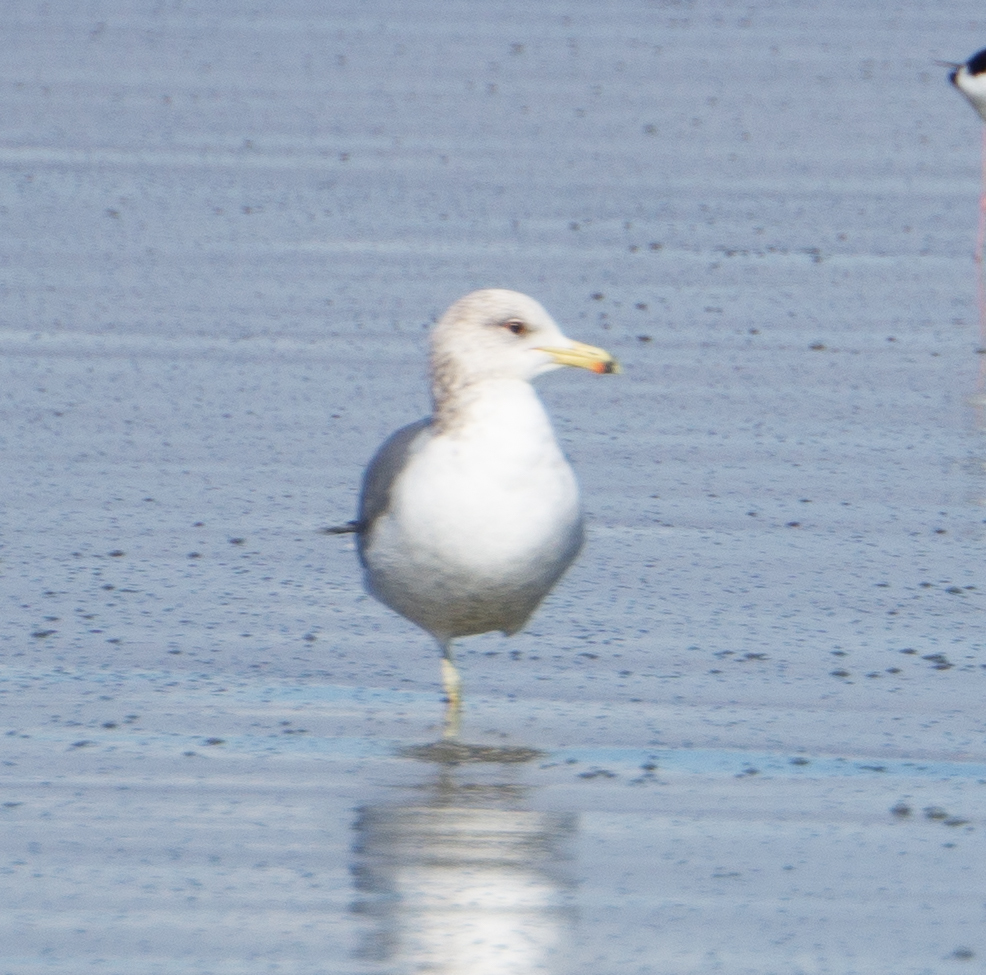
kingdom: Animalia
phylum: Chordata
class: Aves
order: Charadriiformes
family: Laridae
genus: Larus
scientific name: Larus californicus
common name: California gull
